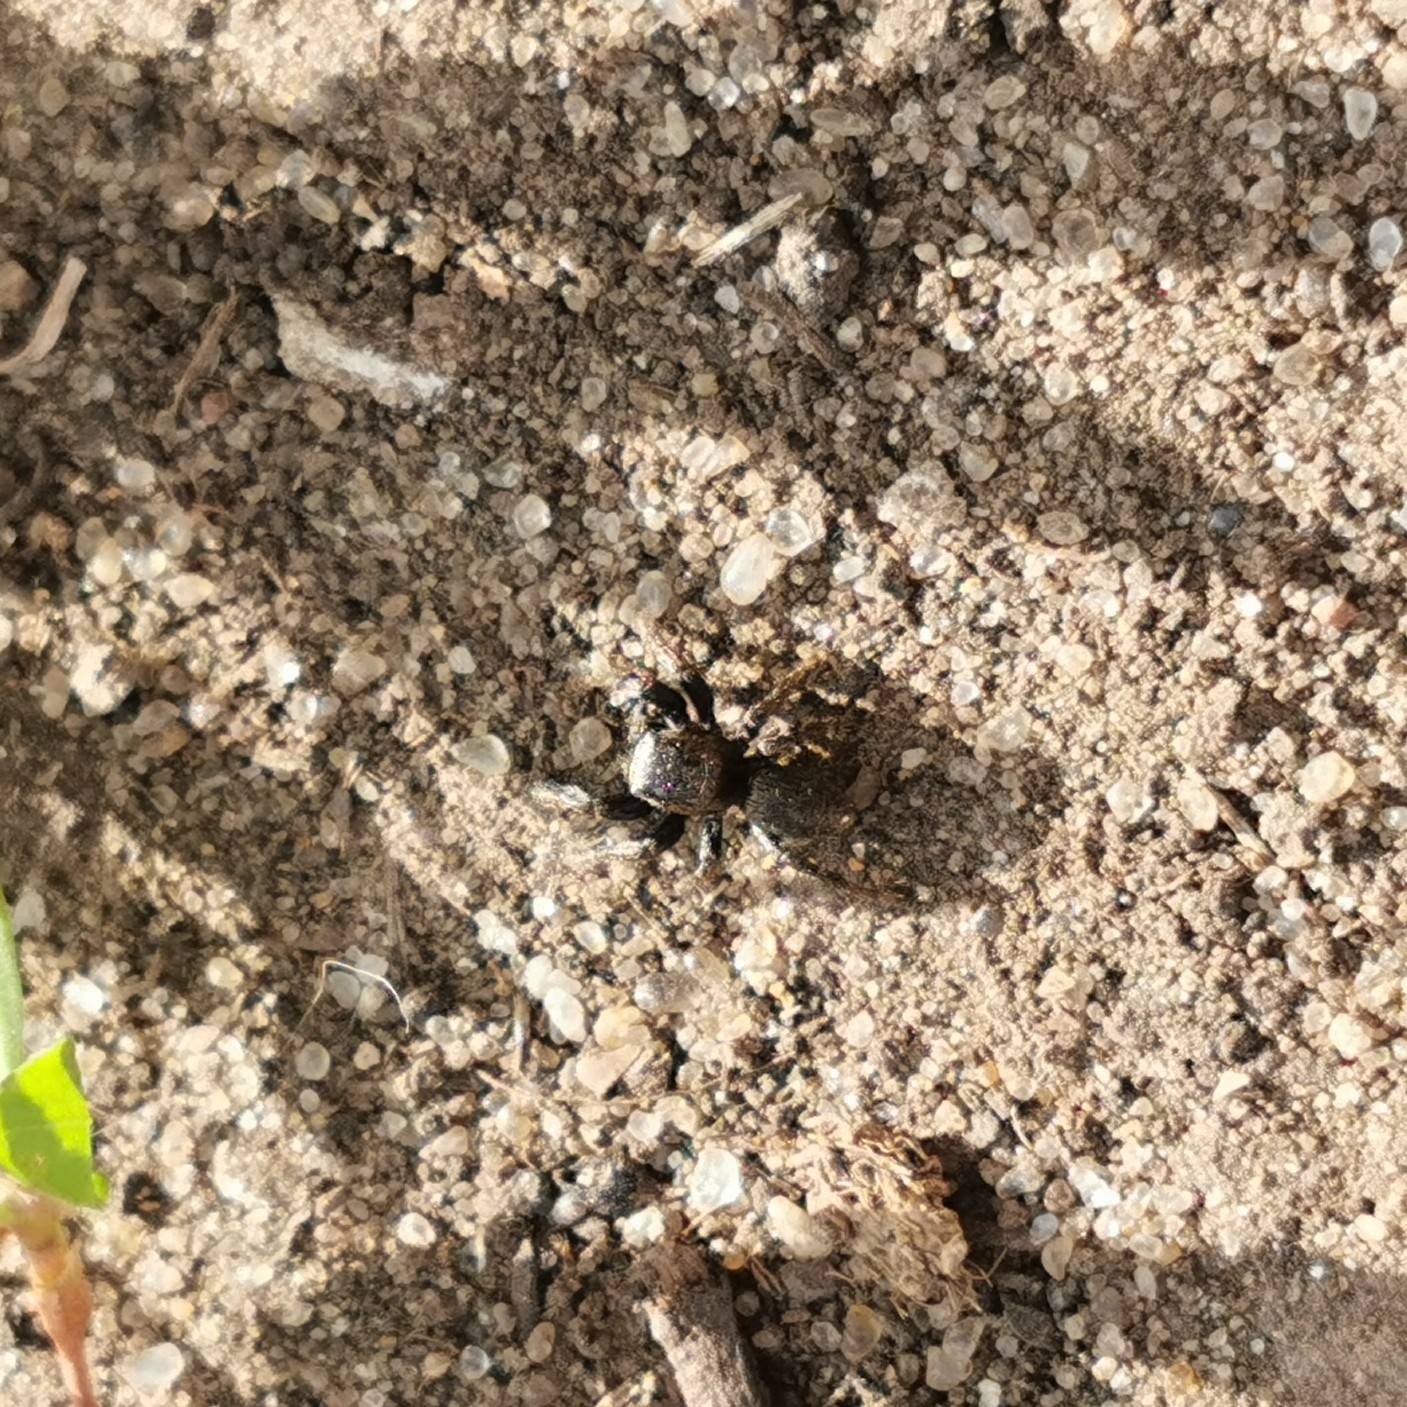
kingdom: Animalia
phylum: Arthropoda
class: Arachnida
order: Araneae
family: Salticidae
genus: Evarcha
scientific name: Evarcha arcuata
